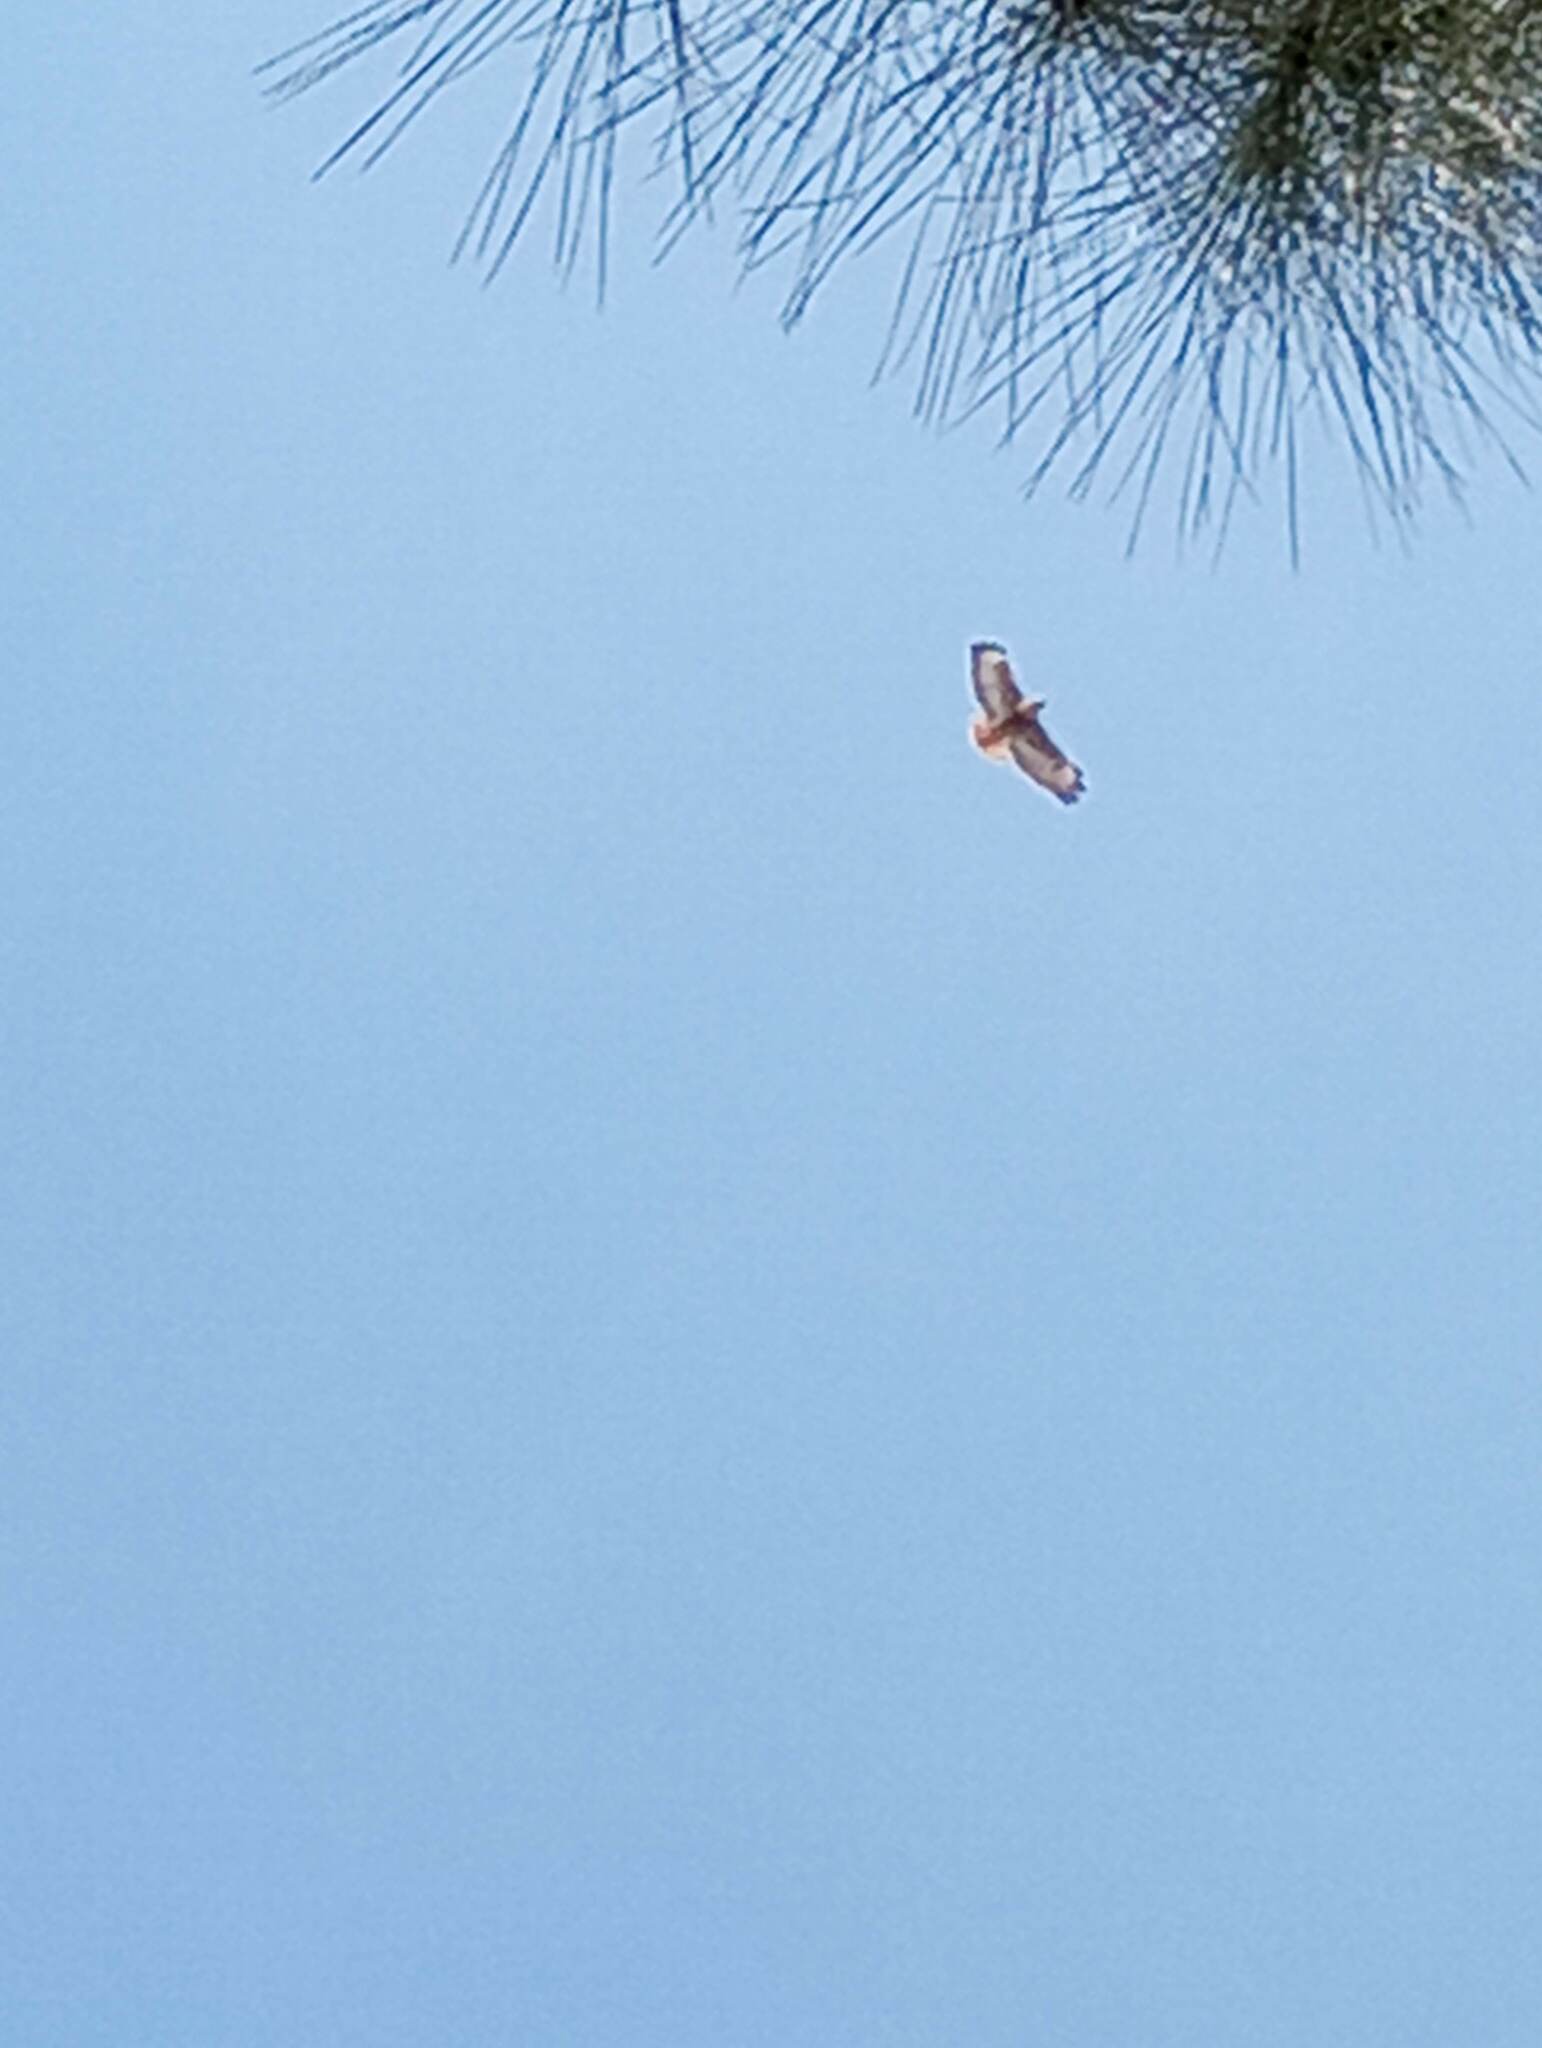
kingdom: Animalia
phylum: Chordata
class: Aves
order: Accipitriformes
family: Accipitridae
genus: Buteo
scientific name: Buteo jamaicensis
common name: Red-tailed hawk
